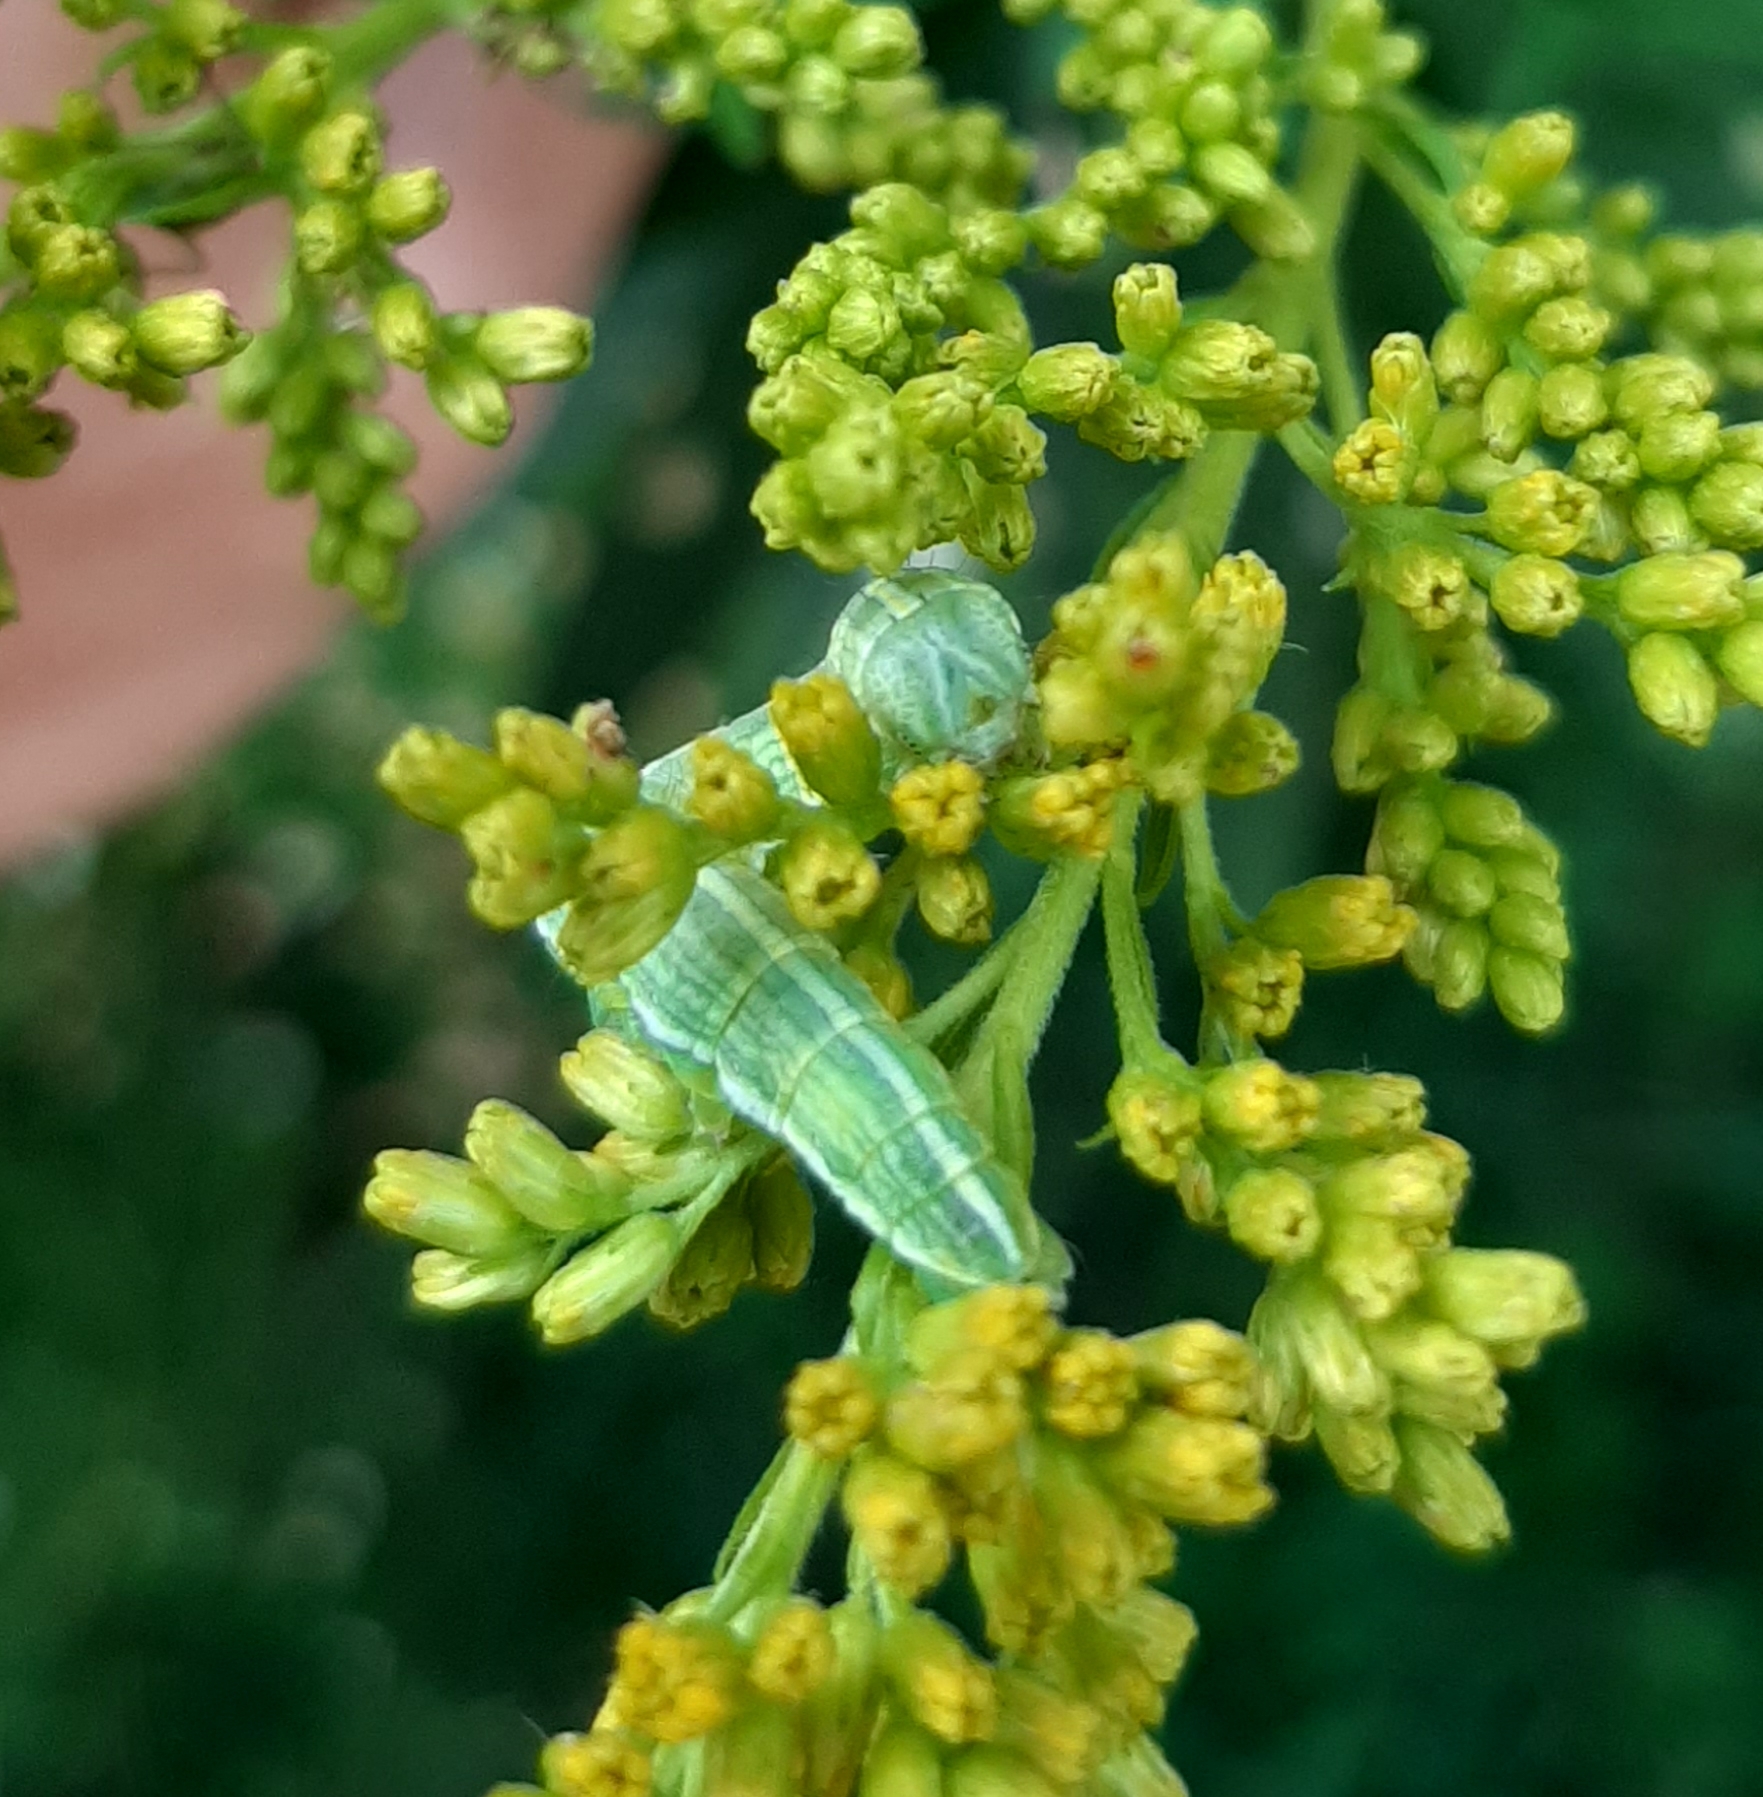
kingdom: Animalia
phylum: Arthropoda
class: Insecta
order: Lepidoptera
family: Noctuidae
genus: Cucullia
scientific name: Cucullia asteroides
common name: Asteroid moth
